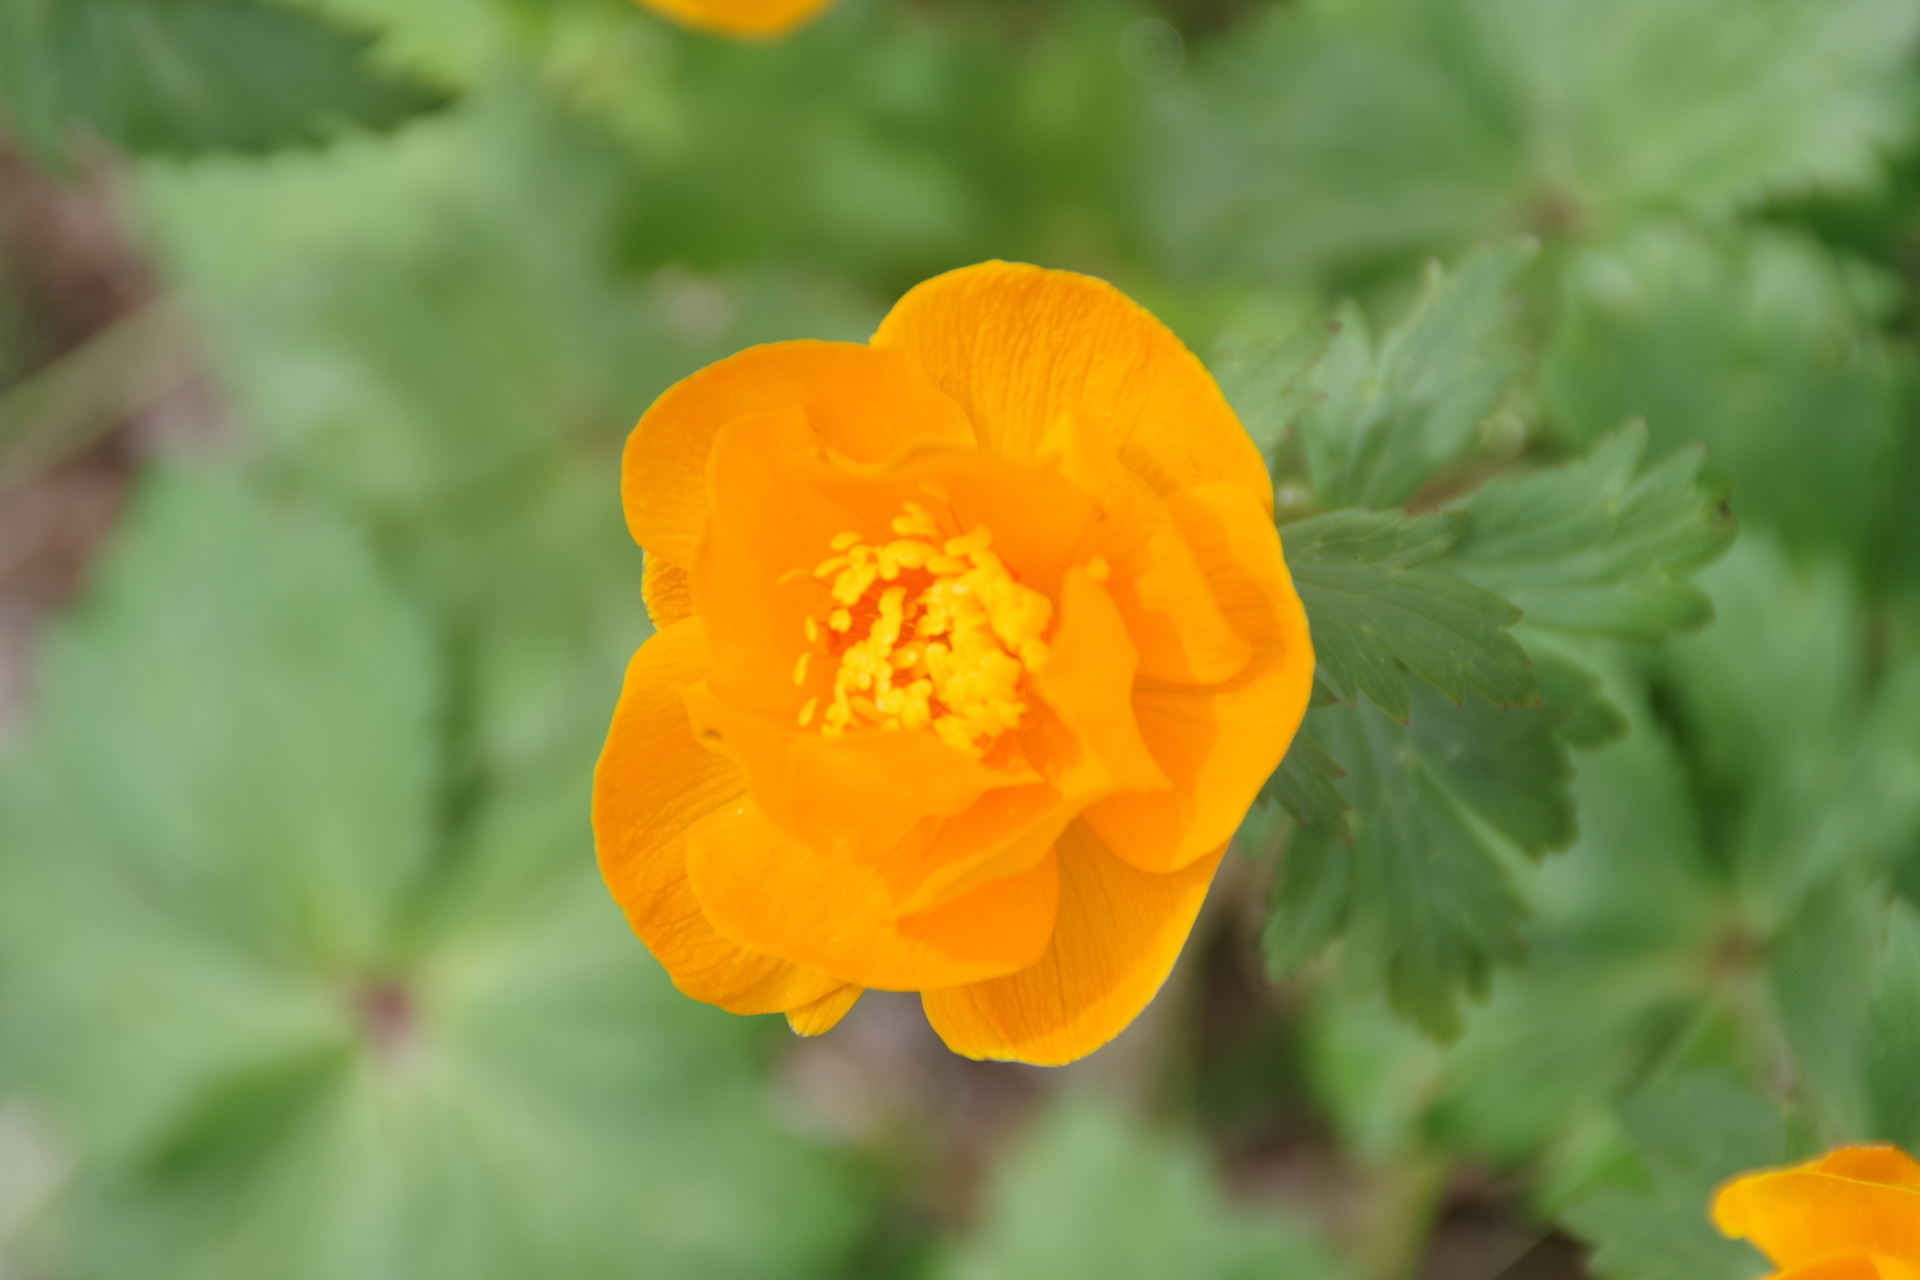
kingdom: Plantae
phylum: Tracheophyta
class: Magnoliopsida
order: Ranunculales
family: Ranunculaceae
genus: Trollius
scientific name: Trollius asiaticus
